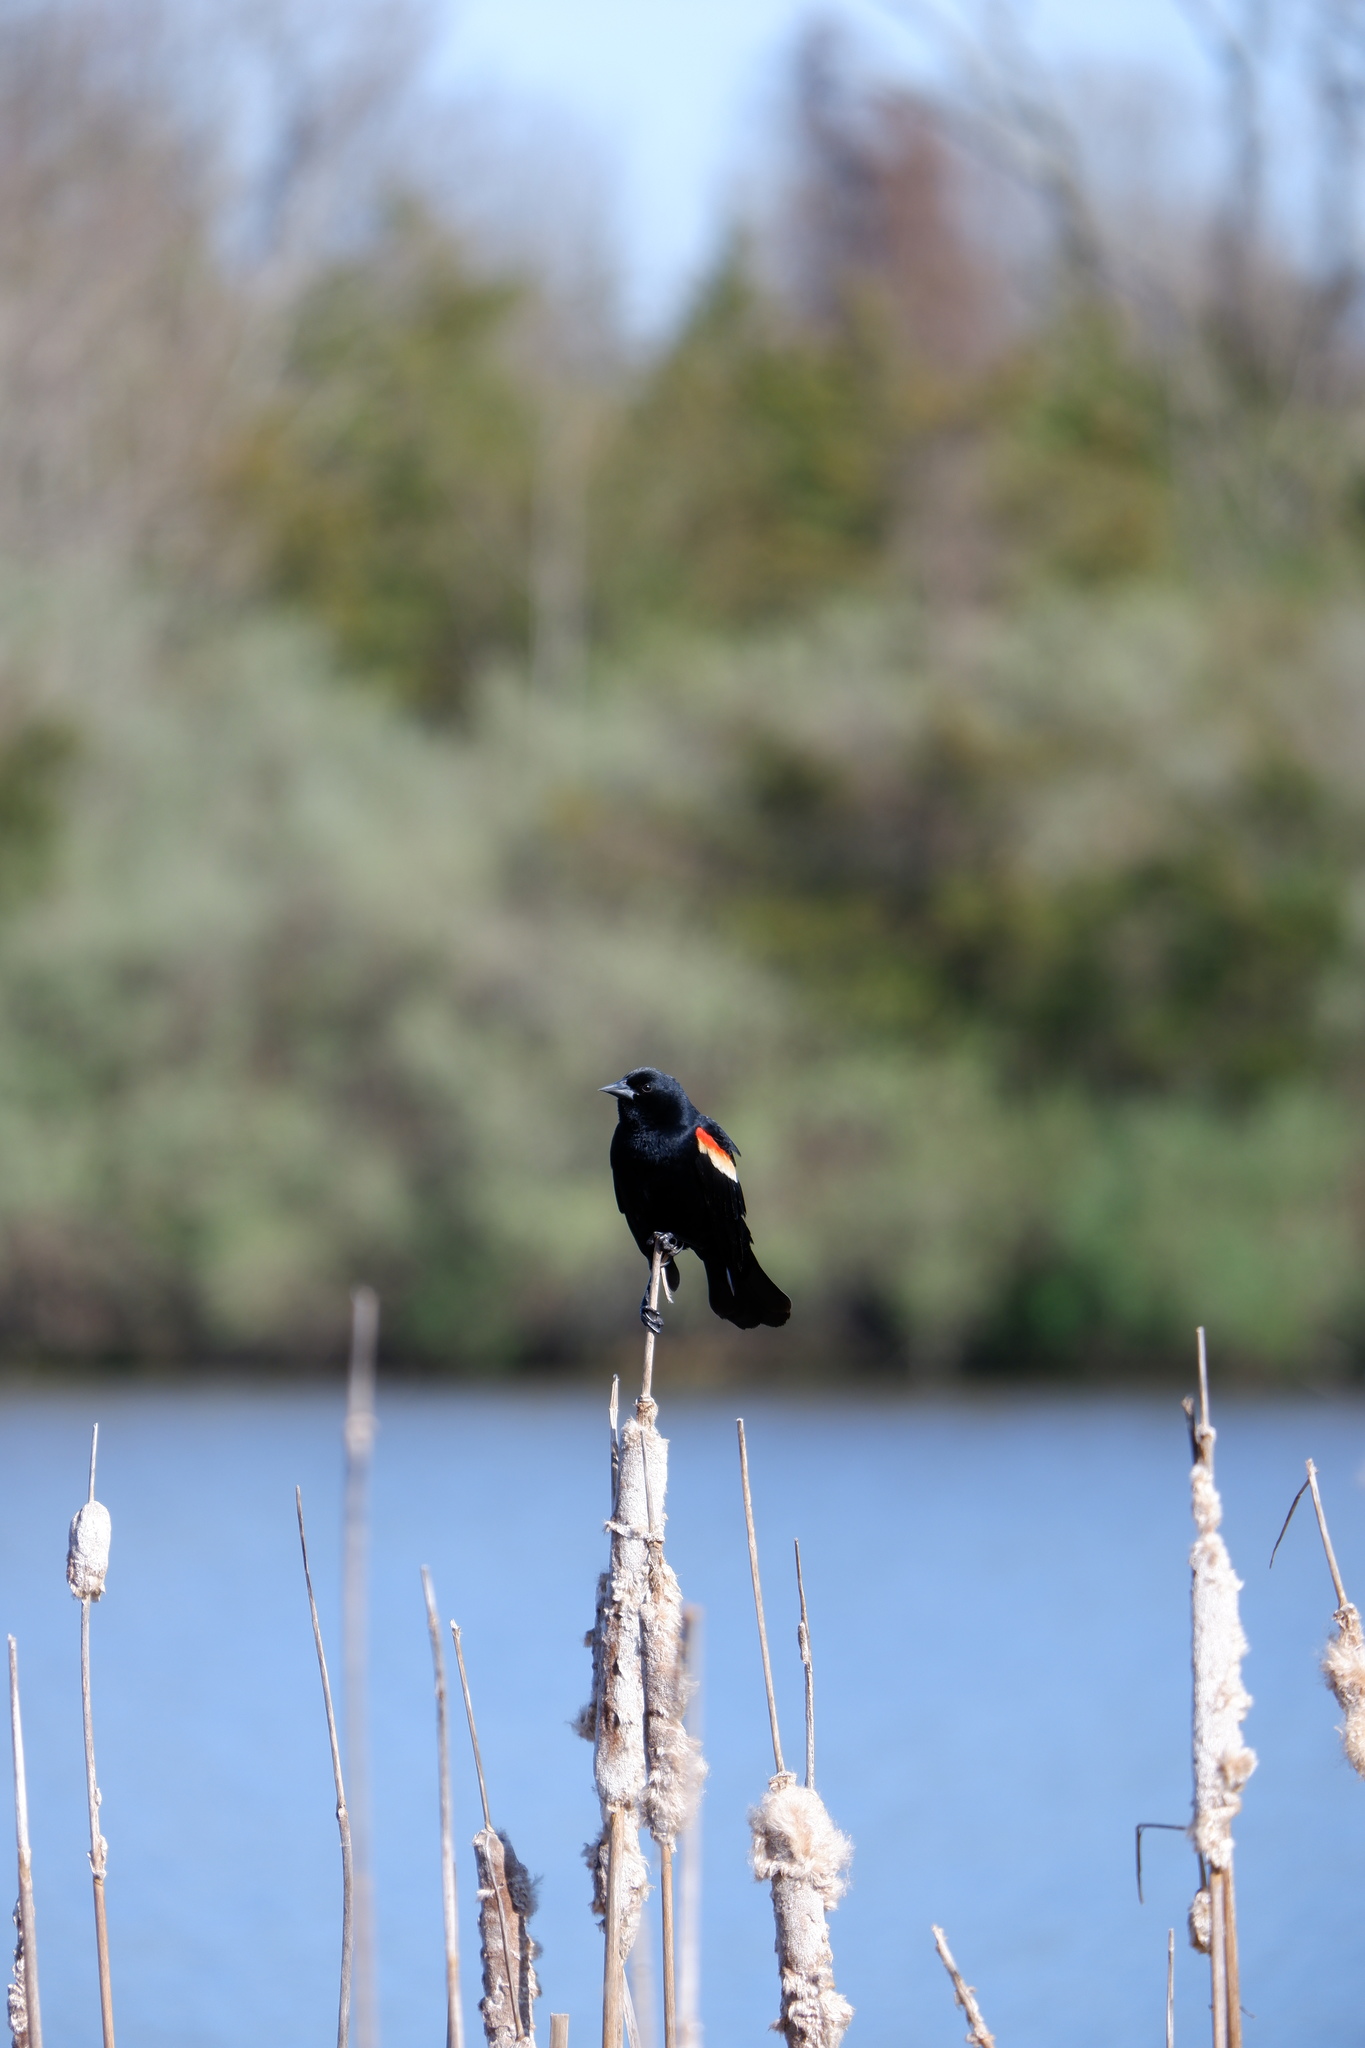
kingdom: Animalia
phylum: Chordata
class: Aves
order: Passeriformes
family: Icteridae
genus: Agelaius
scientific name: Agelaius phoeniceus
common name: Red-winged blackbird
